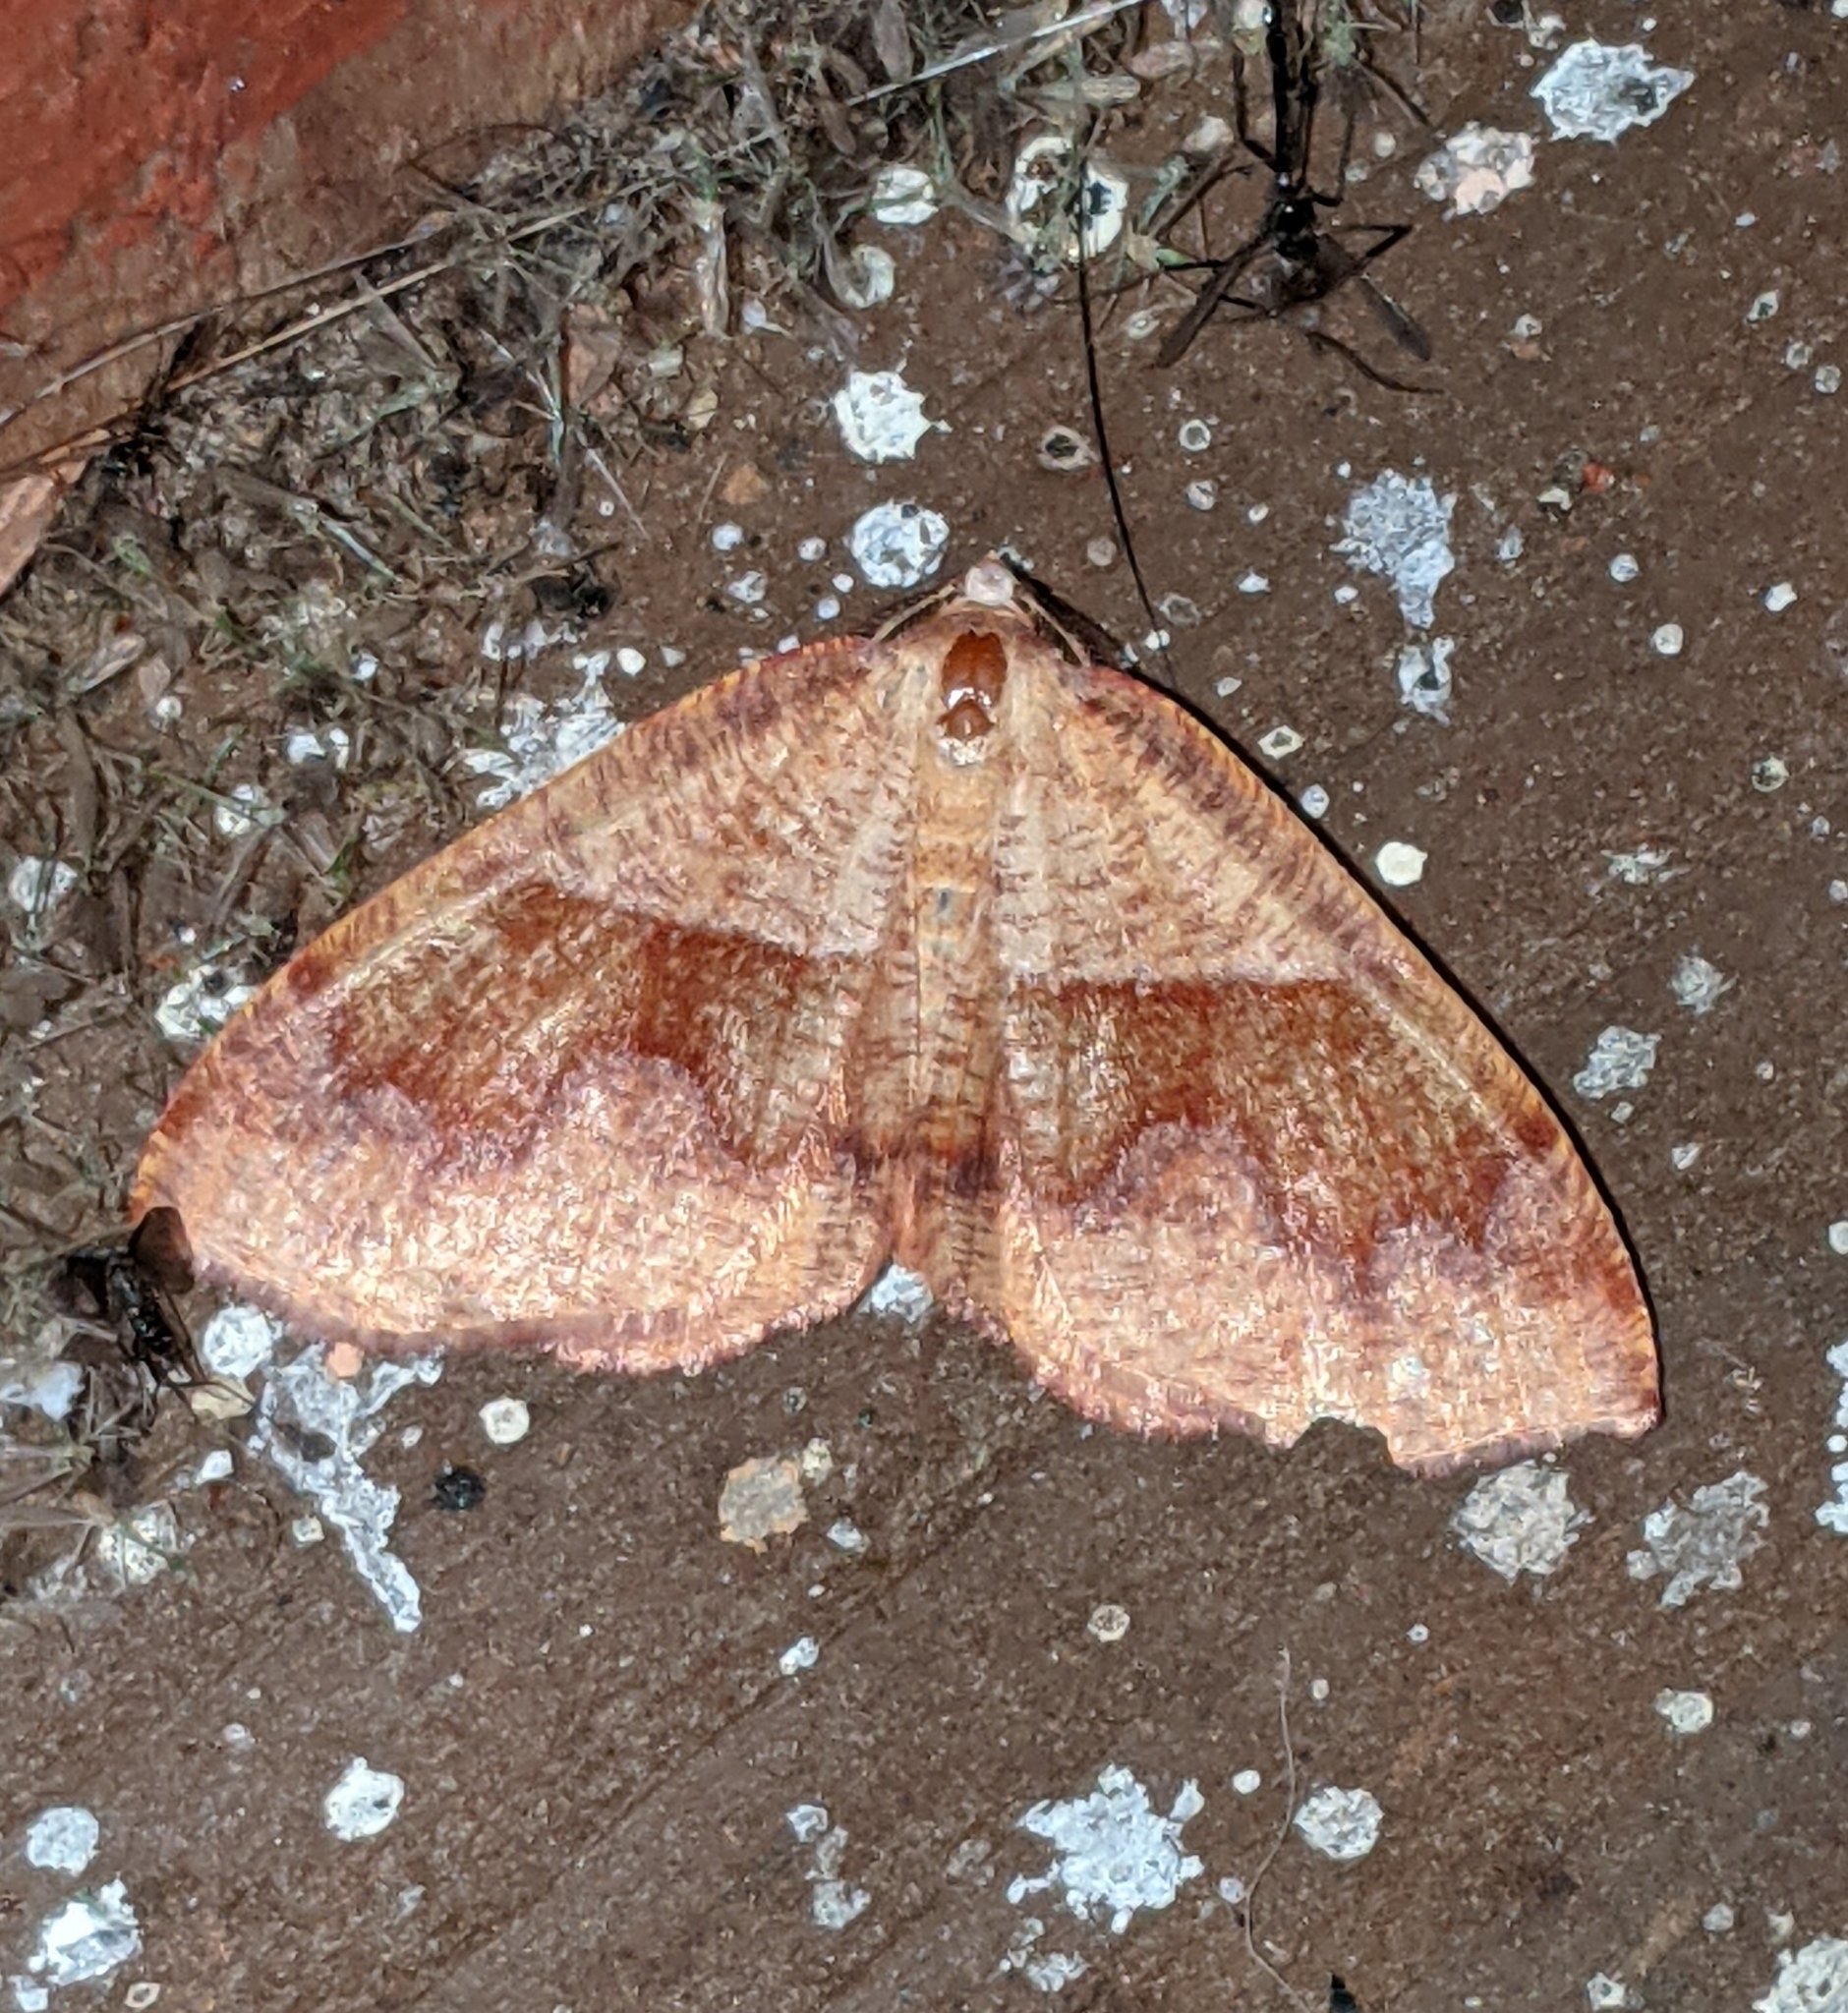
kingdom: Animalia
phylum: Arthropoda
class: Insecta
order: Lepidoptera
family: Geometridae
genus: Plagodis
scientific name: Plagodis pulveraria
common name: Barred umber
